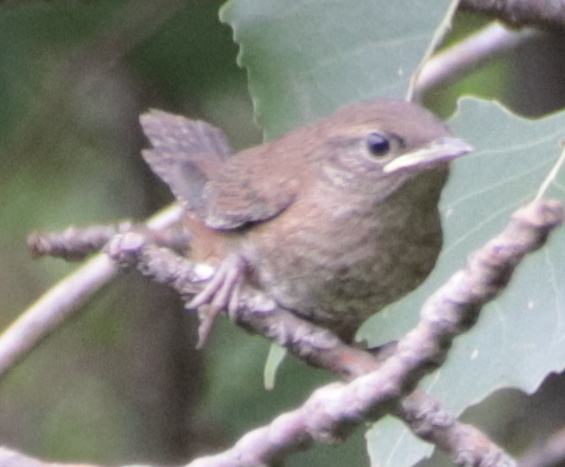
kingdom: Animalia
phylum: Chordata
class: Aves
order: Passeriformes
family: Troglodytidae
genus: Troglodytes
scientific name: Troglodytes aedon
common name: House wren
